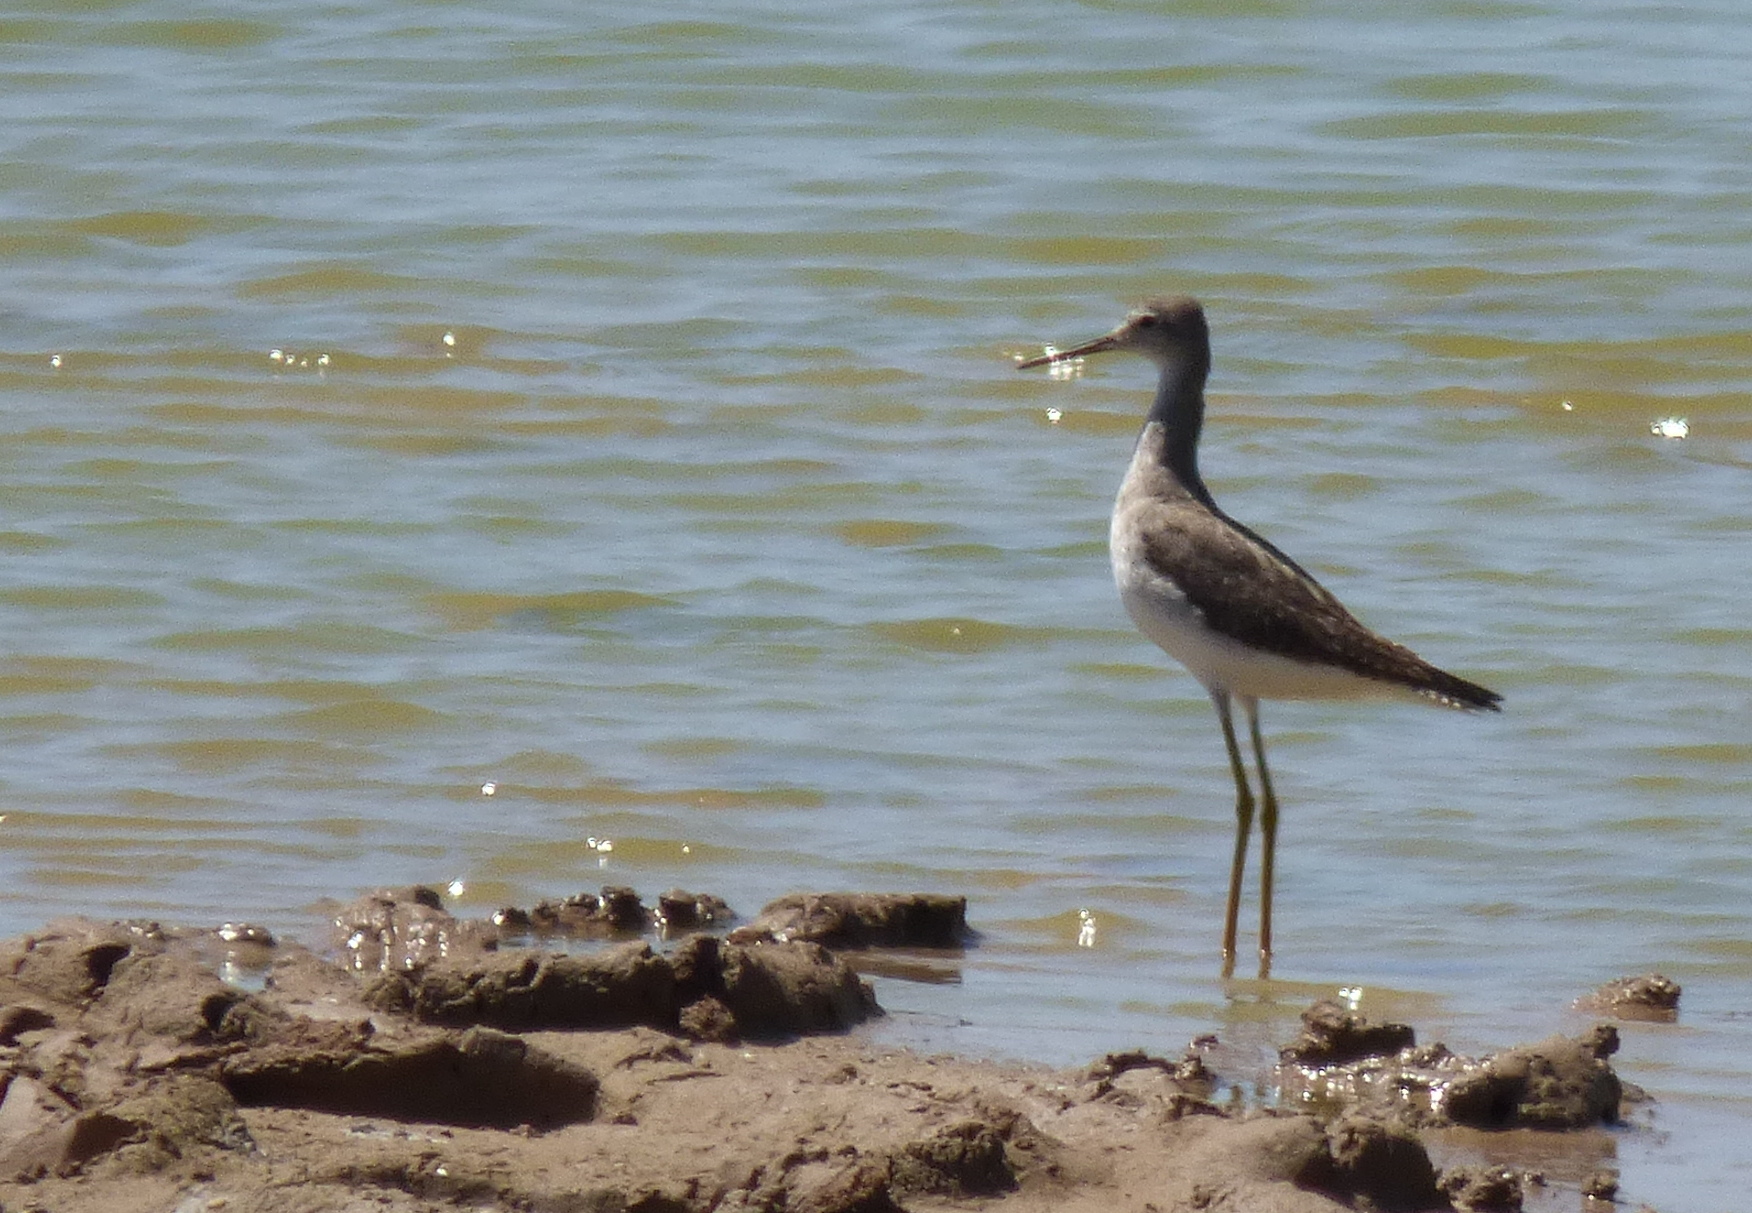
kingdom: Animalia
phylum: Chordata
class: Aves
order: Charadriiformes
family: Scolopacidae
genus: Tringa
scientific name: Tringa melanoleuca
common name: Greater yellowlegs
